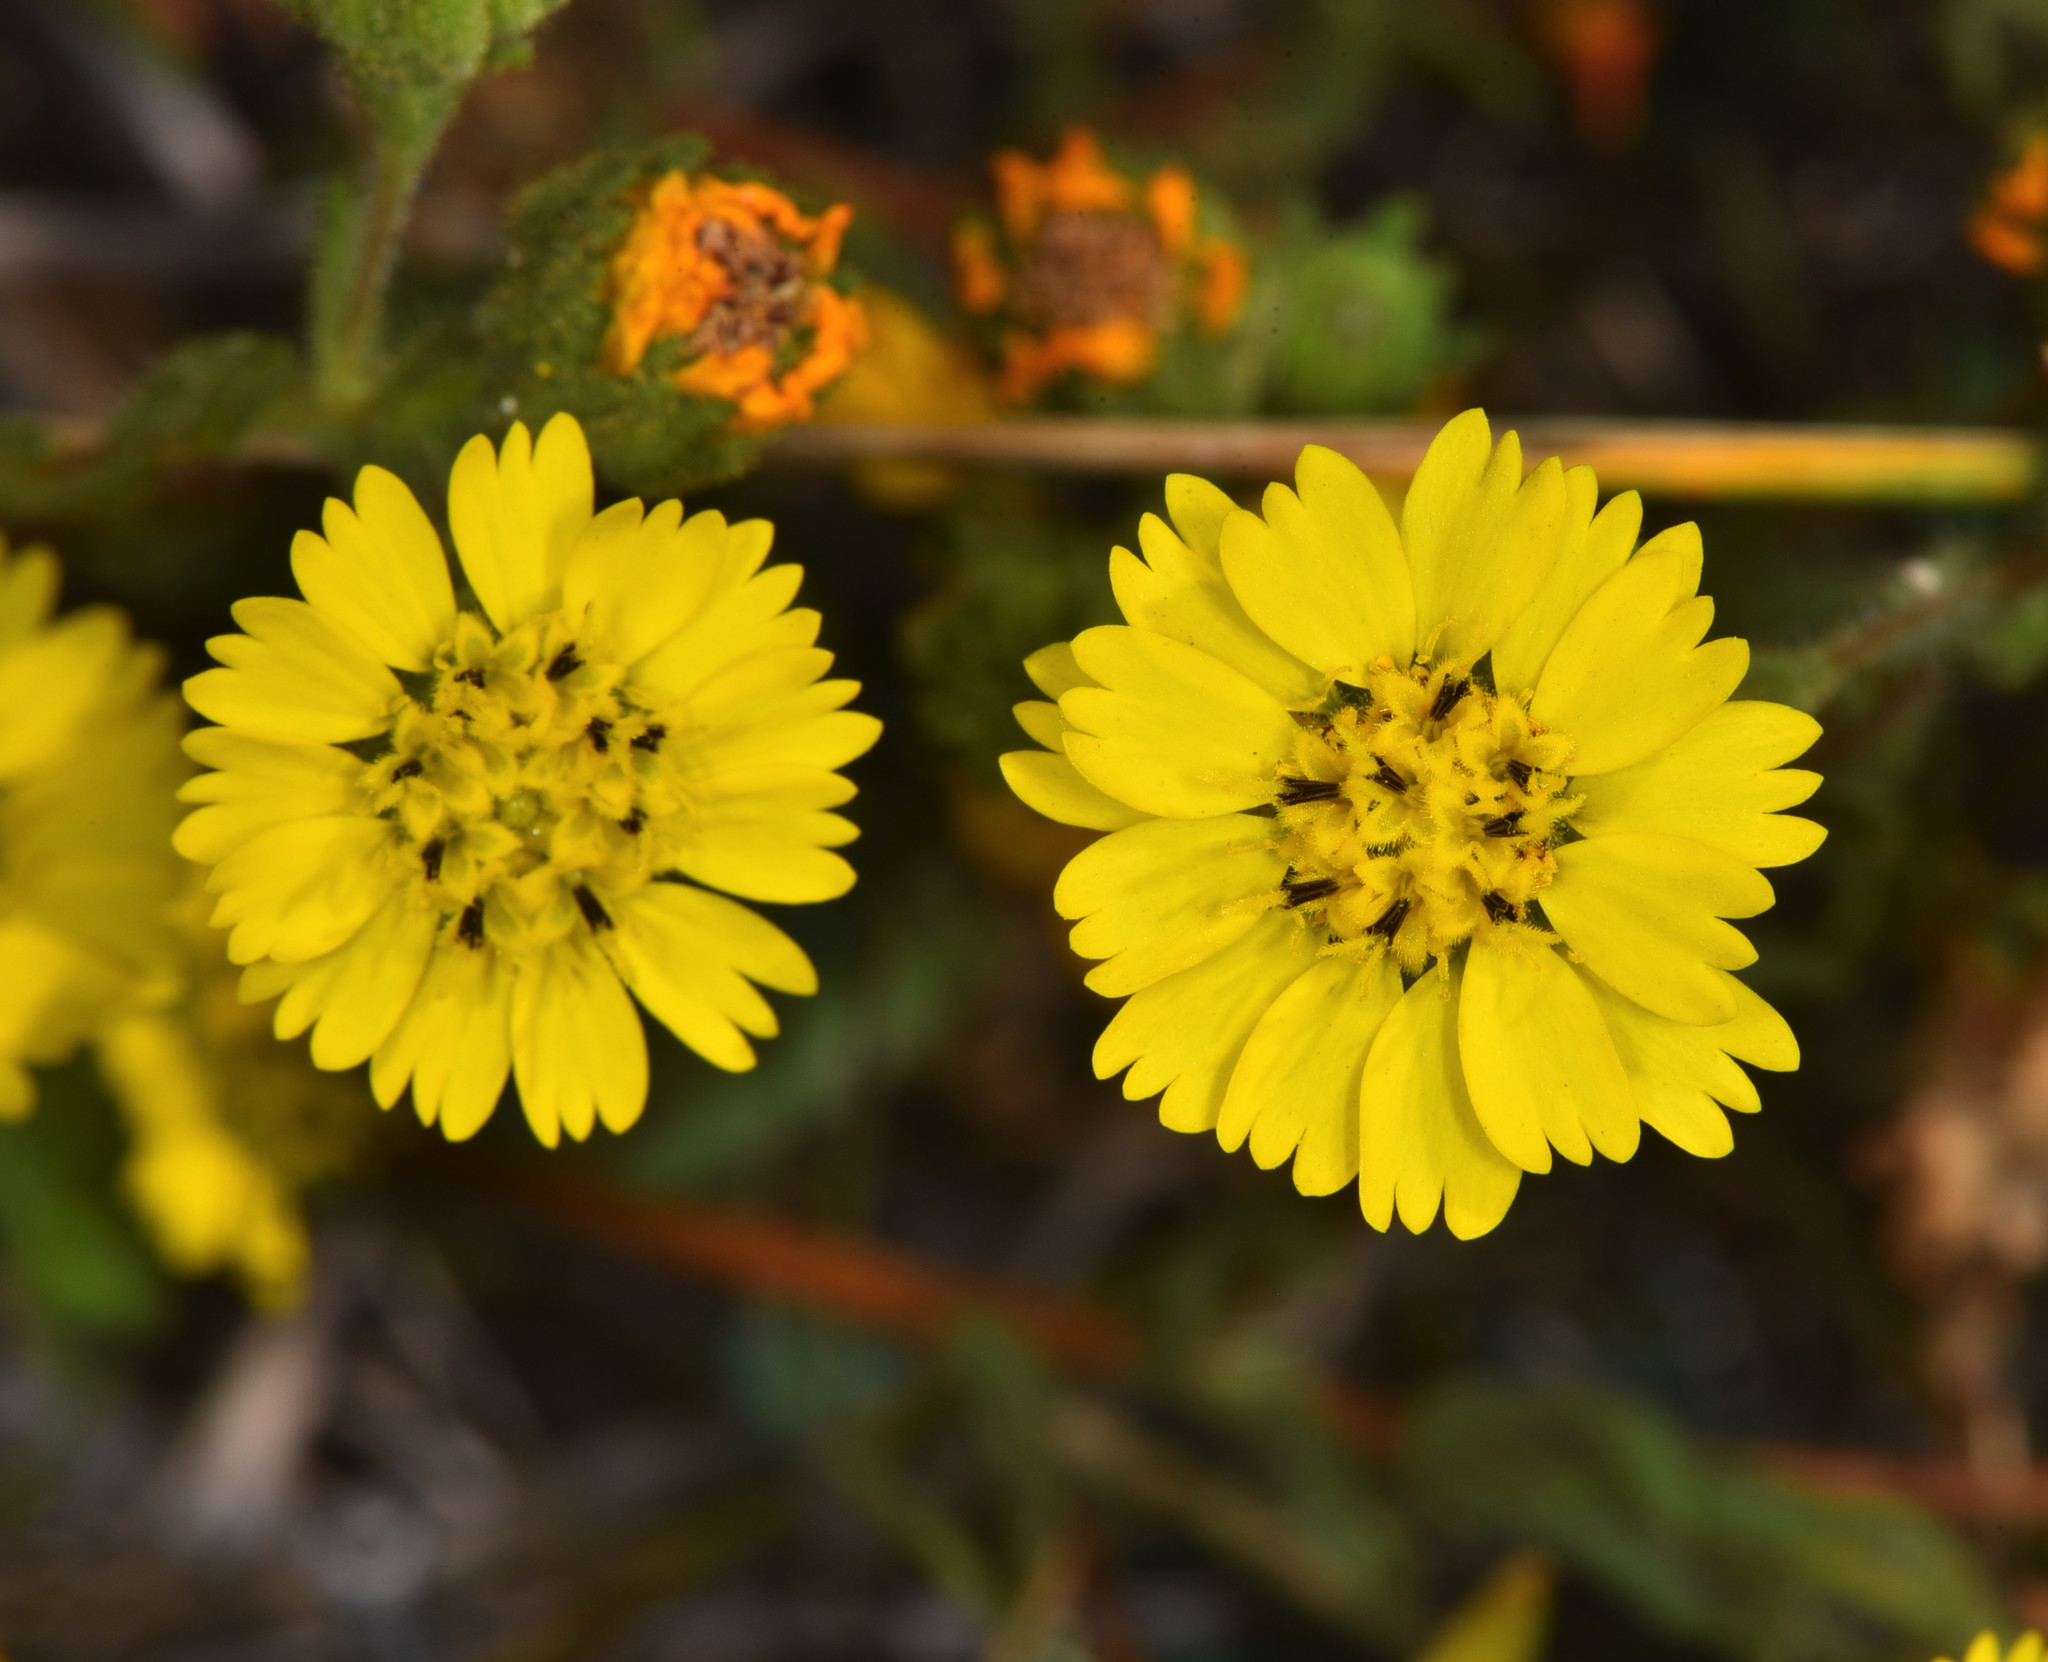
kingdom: Plantae
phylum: Tracheophyta
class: Magnoliopsida
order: Asterales
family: Asteraceae
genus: Deinandra
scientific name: Deinandra corymbosa
